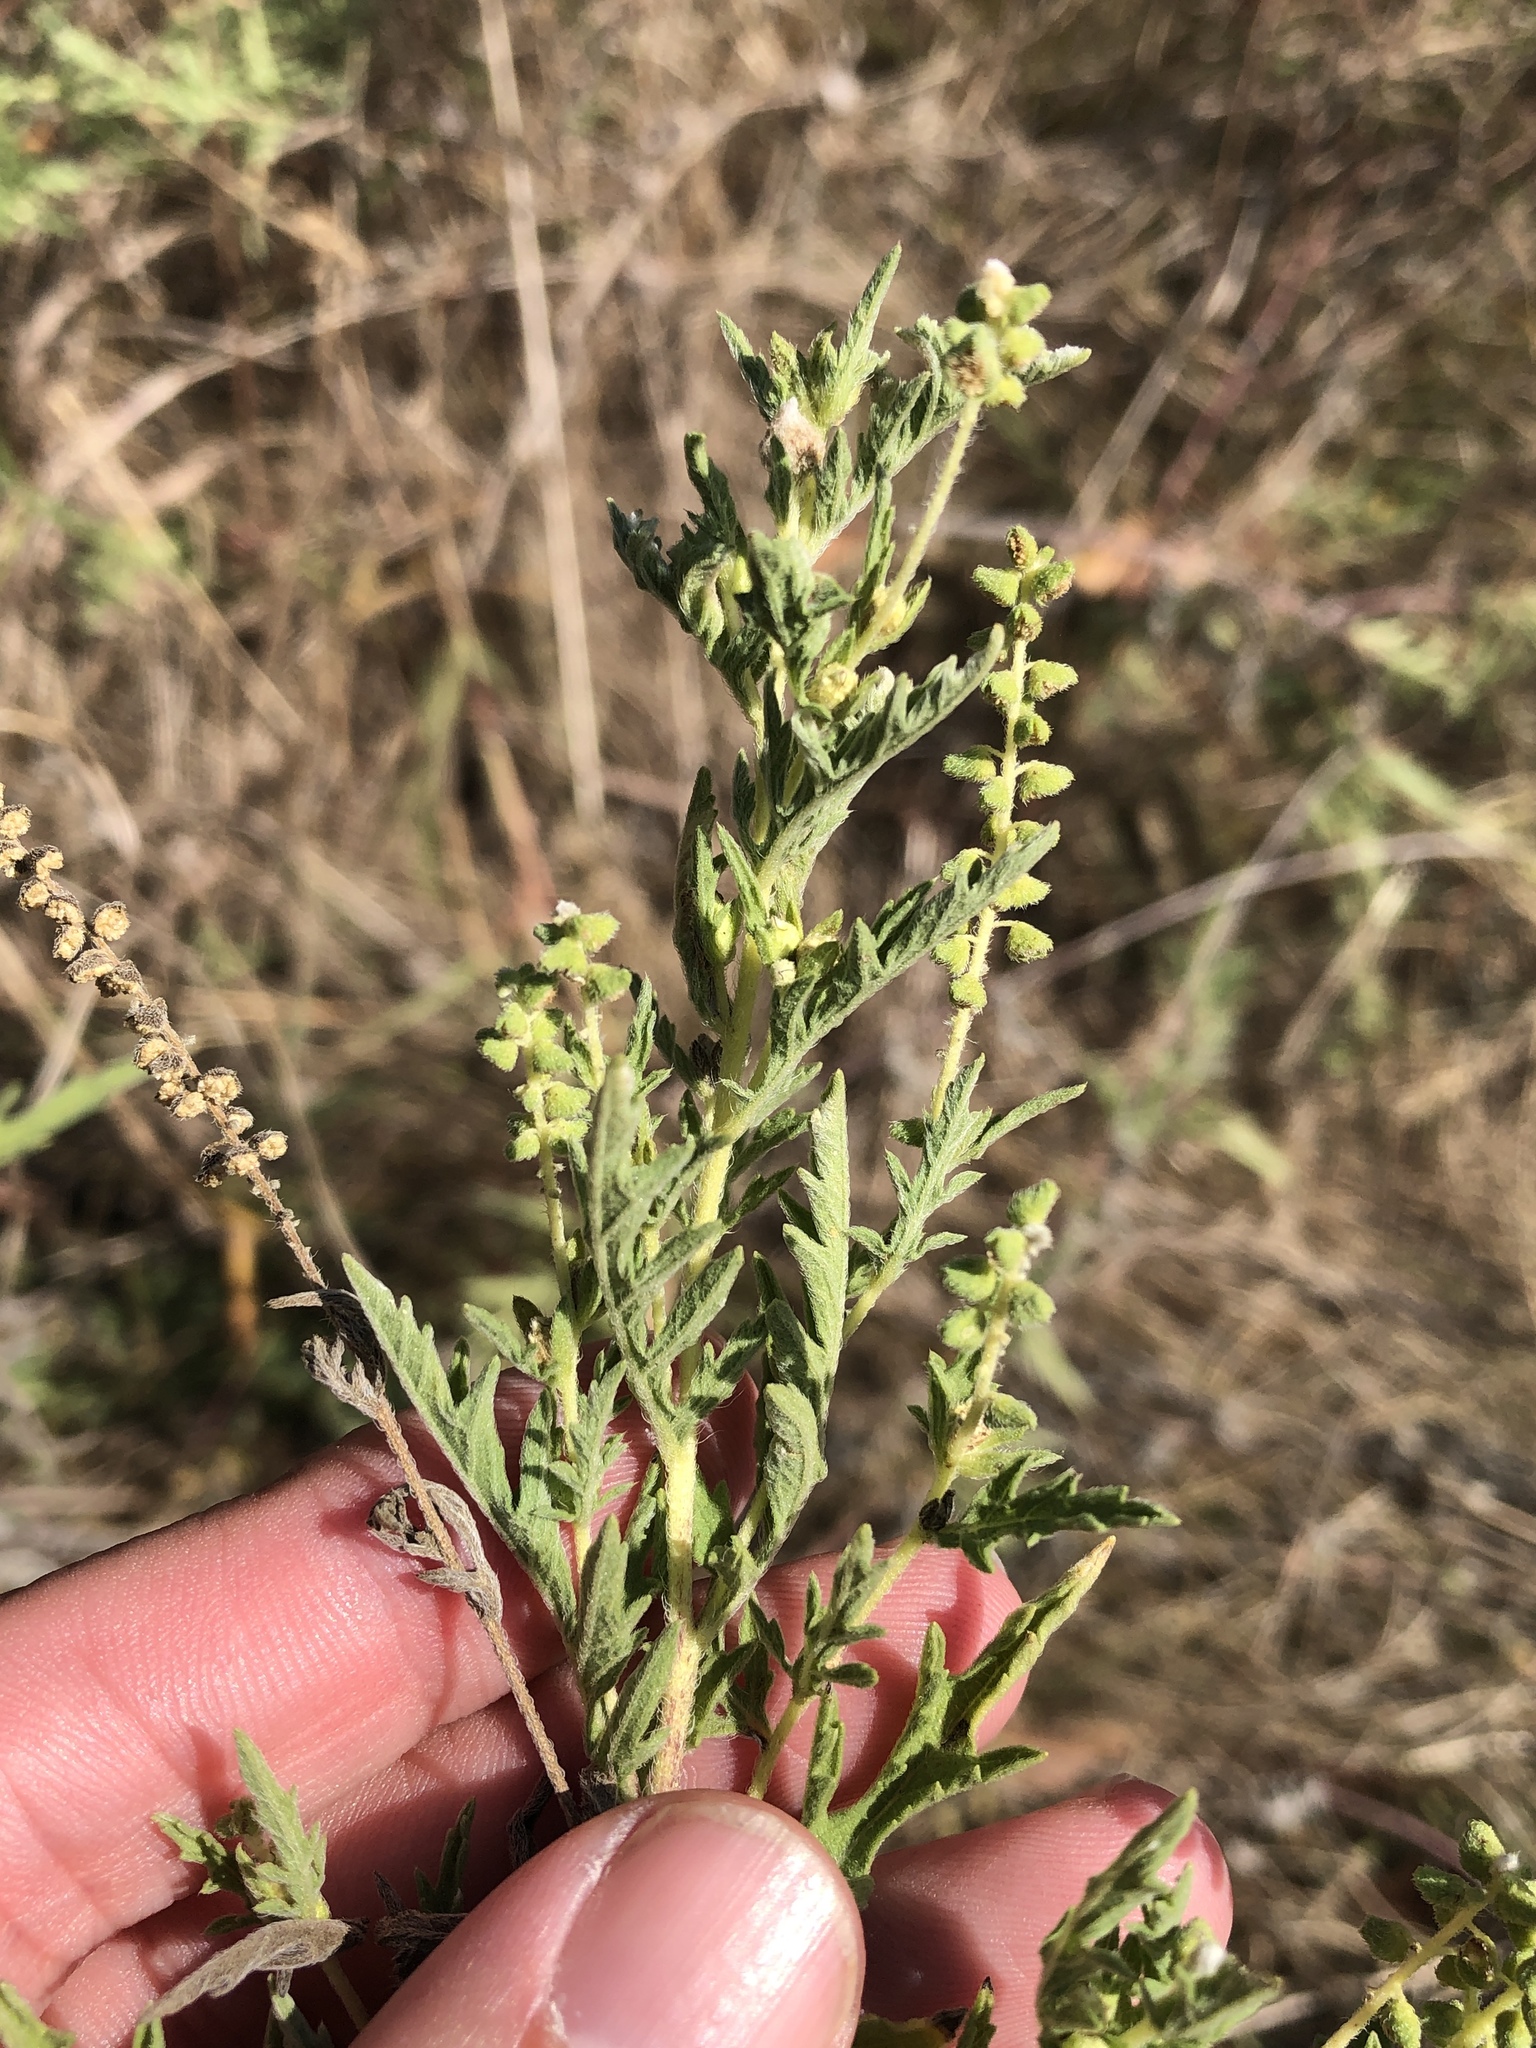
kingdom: Plantae
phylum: Tracheophyta
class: Magnoliopsida
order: Asterales
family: Asteraceae
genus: Ambrosia
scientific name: Ambrosia psilostachya
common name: Perennial ragweed
